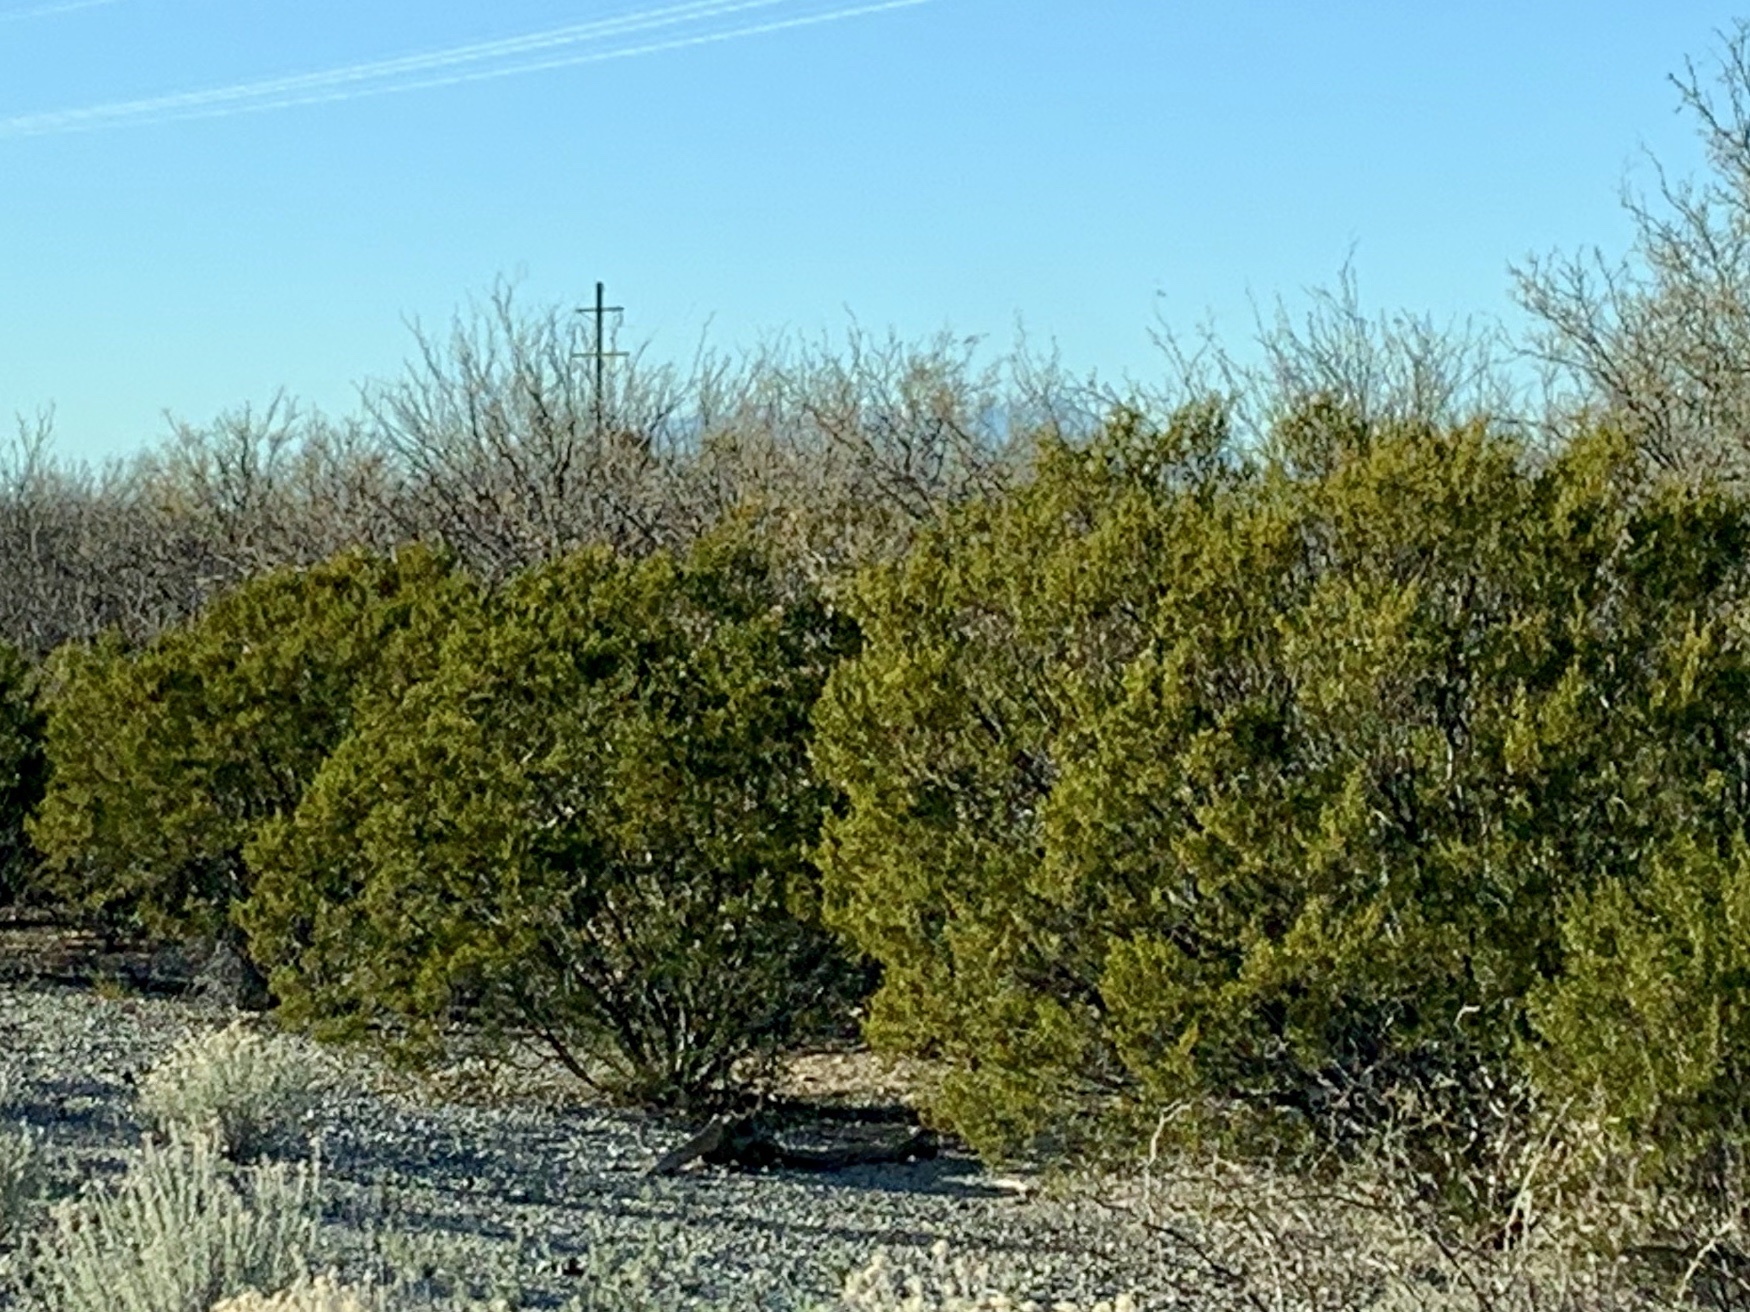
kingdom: Plantae
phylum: Tracheophyta
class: Magnoliopsida
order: Zygophyllales
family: Zygophyllaceae
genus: Larrea
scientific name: Larrea tridentata
